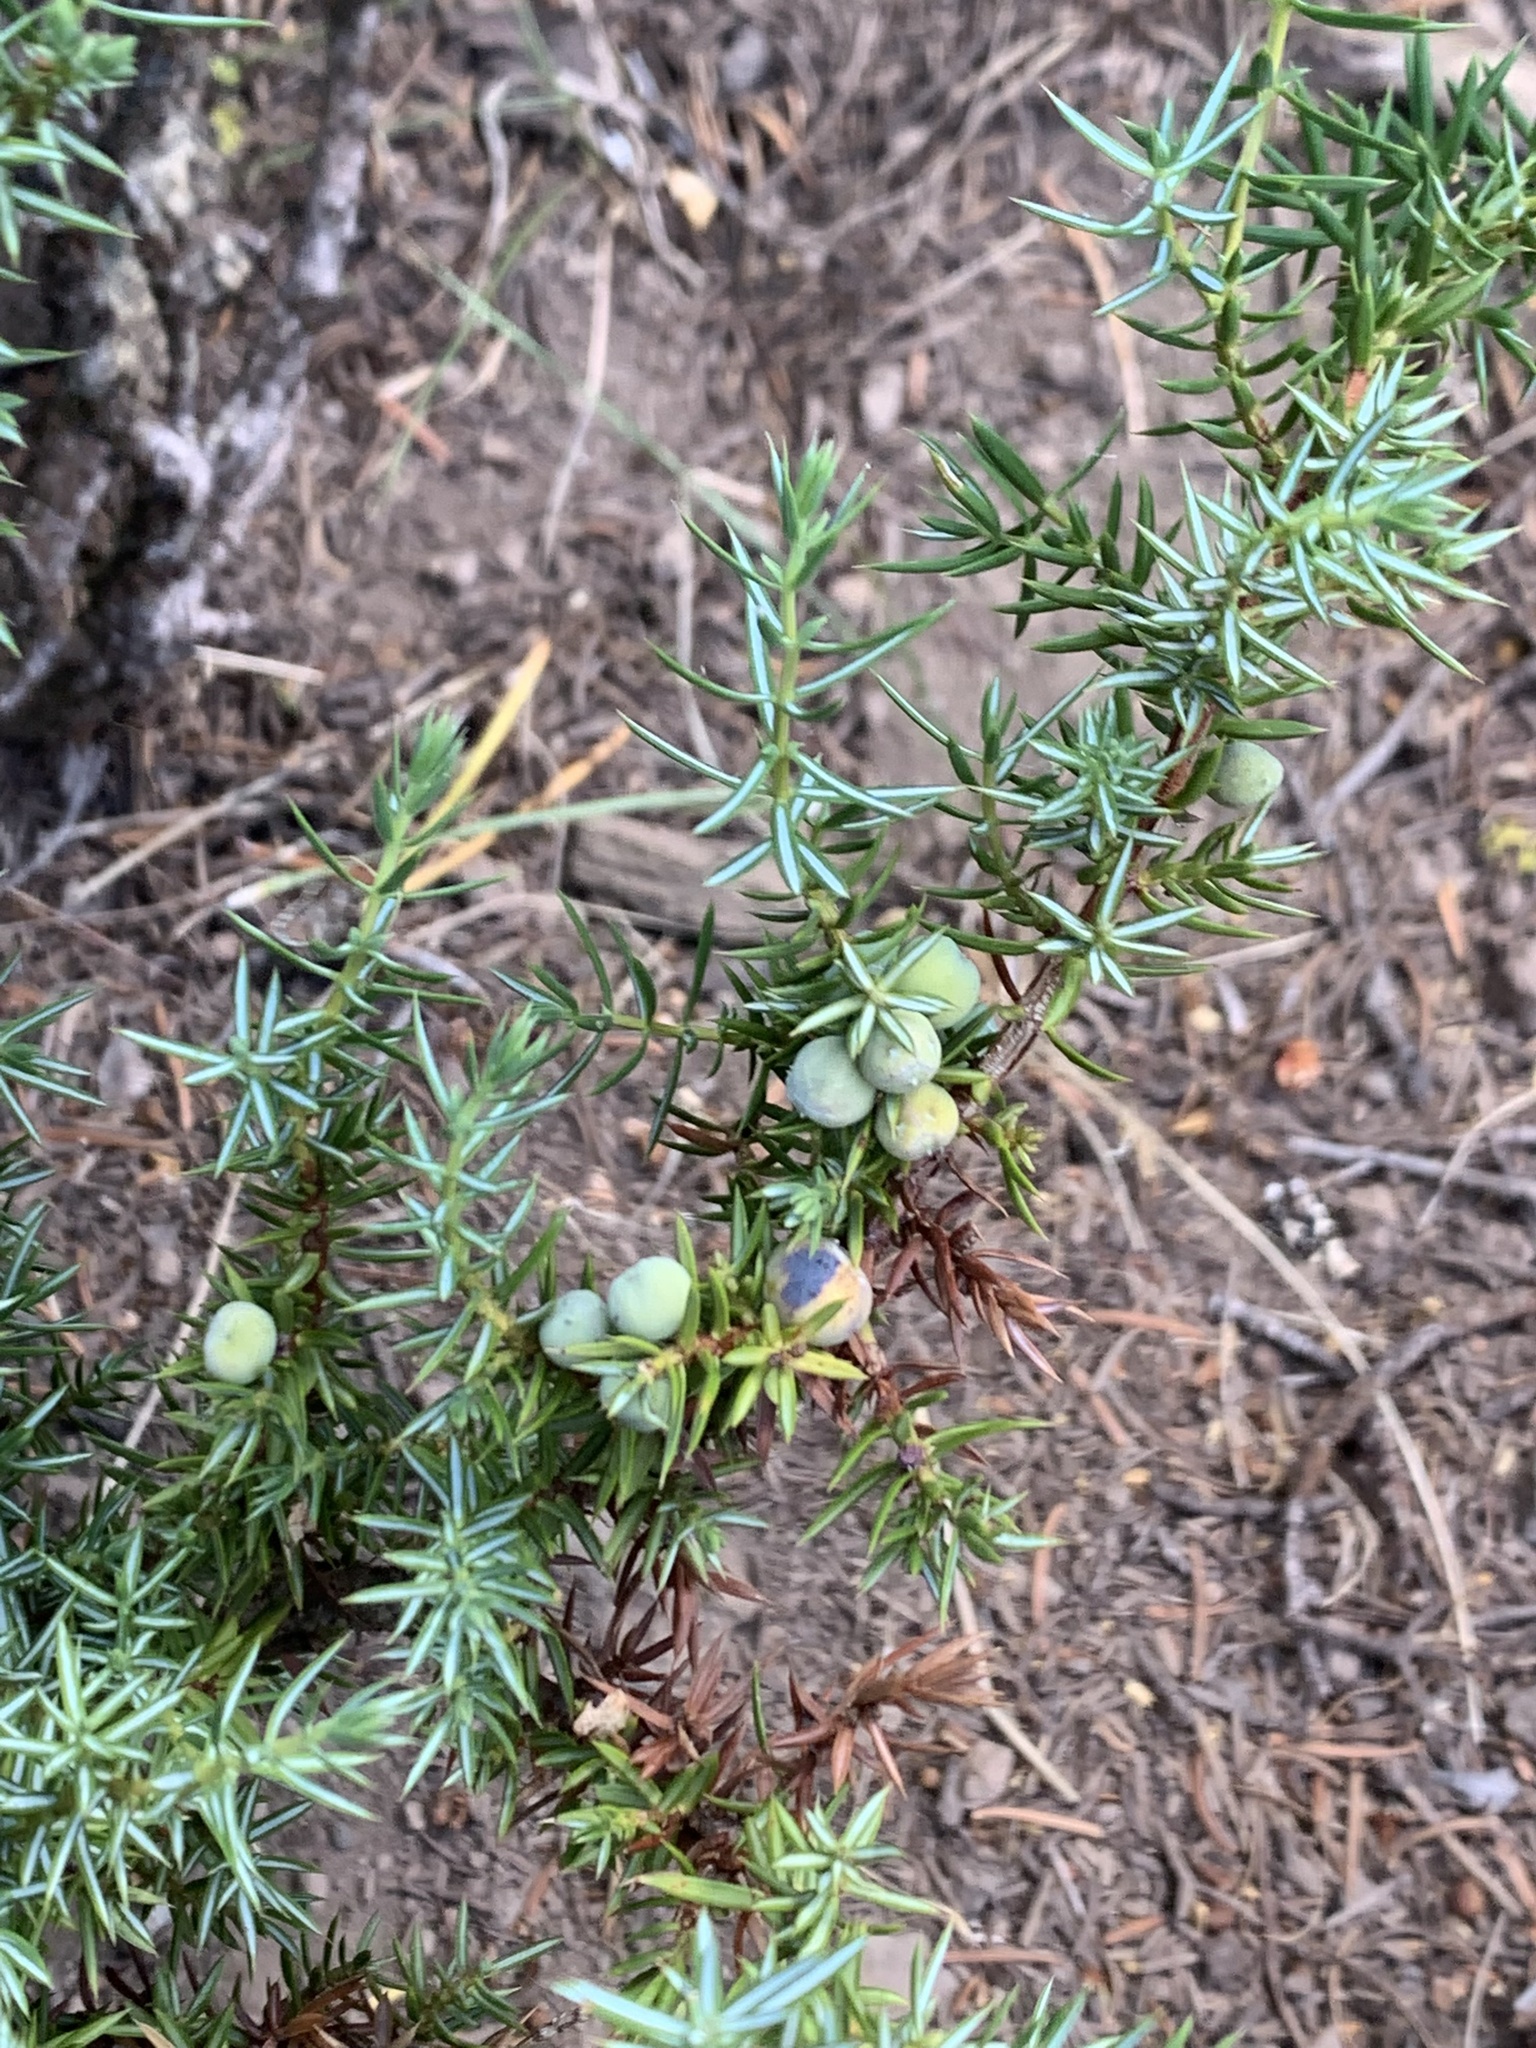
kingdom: Plantae
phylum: Tracheophyta
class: Pinopsida
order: Pinales
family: Cupressaceae
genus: Juniperus
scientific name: Juniperus communis
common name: Common juniper
